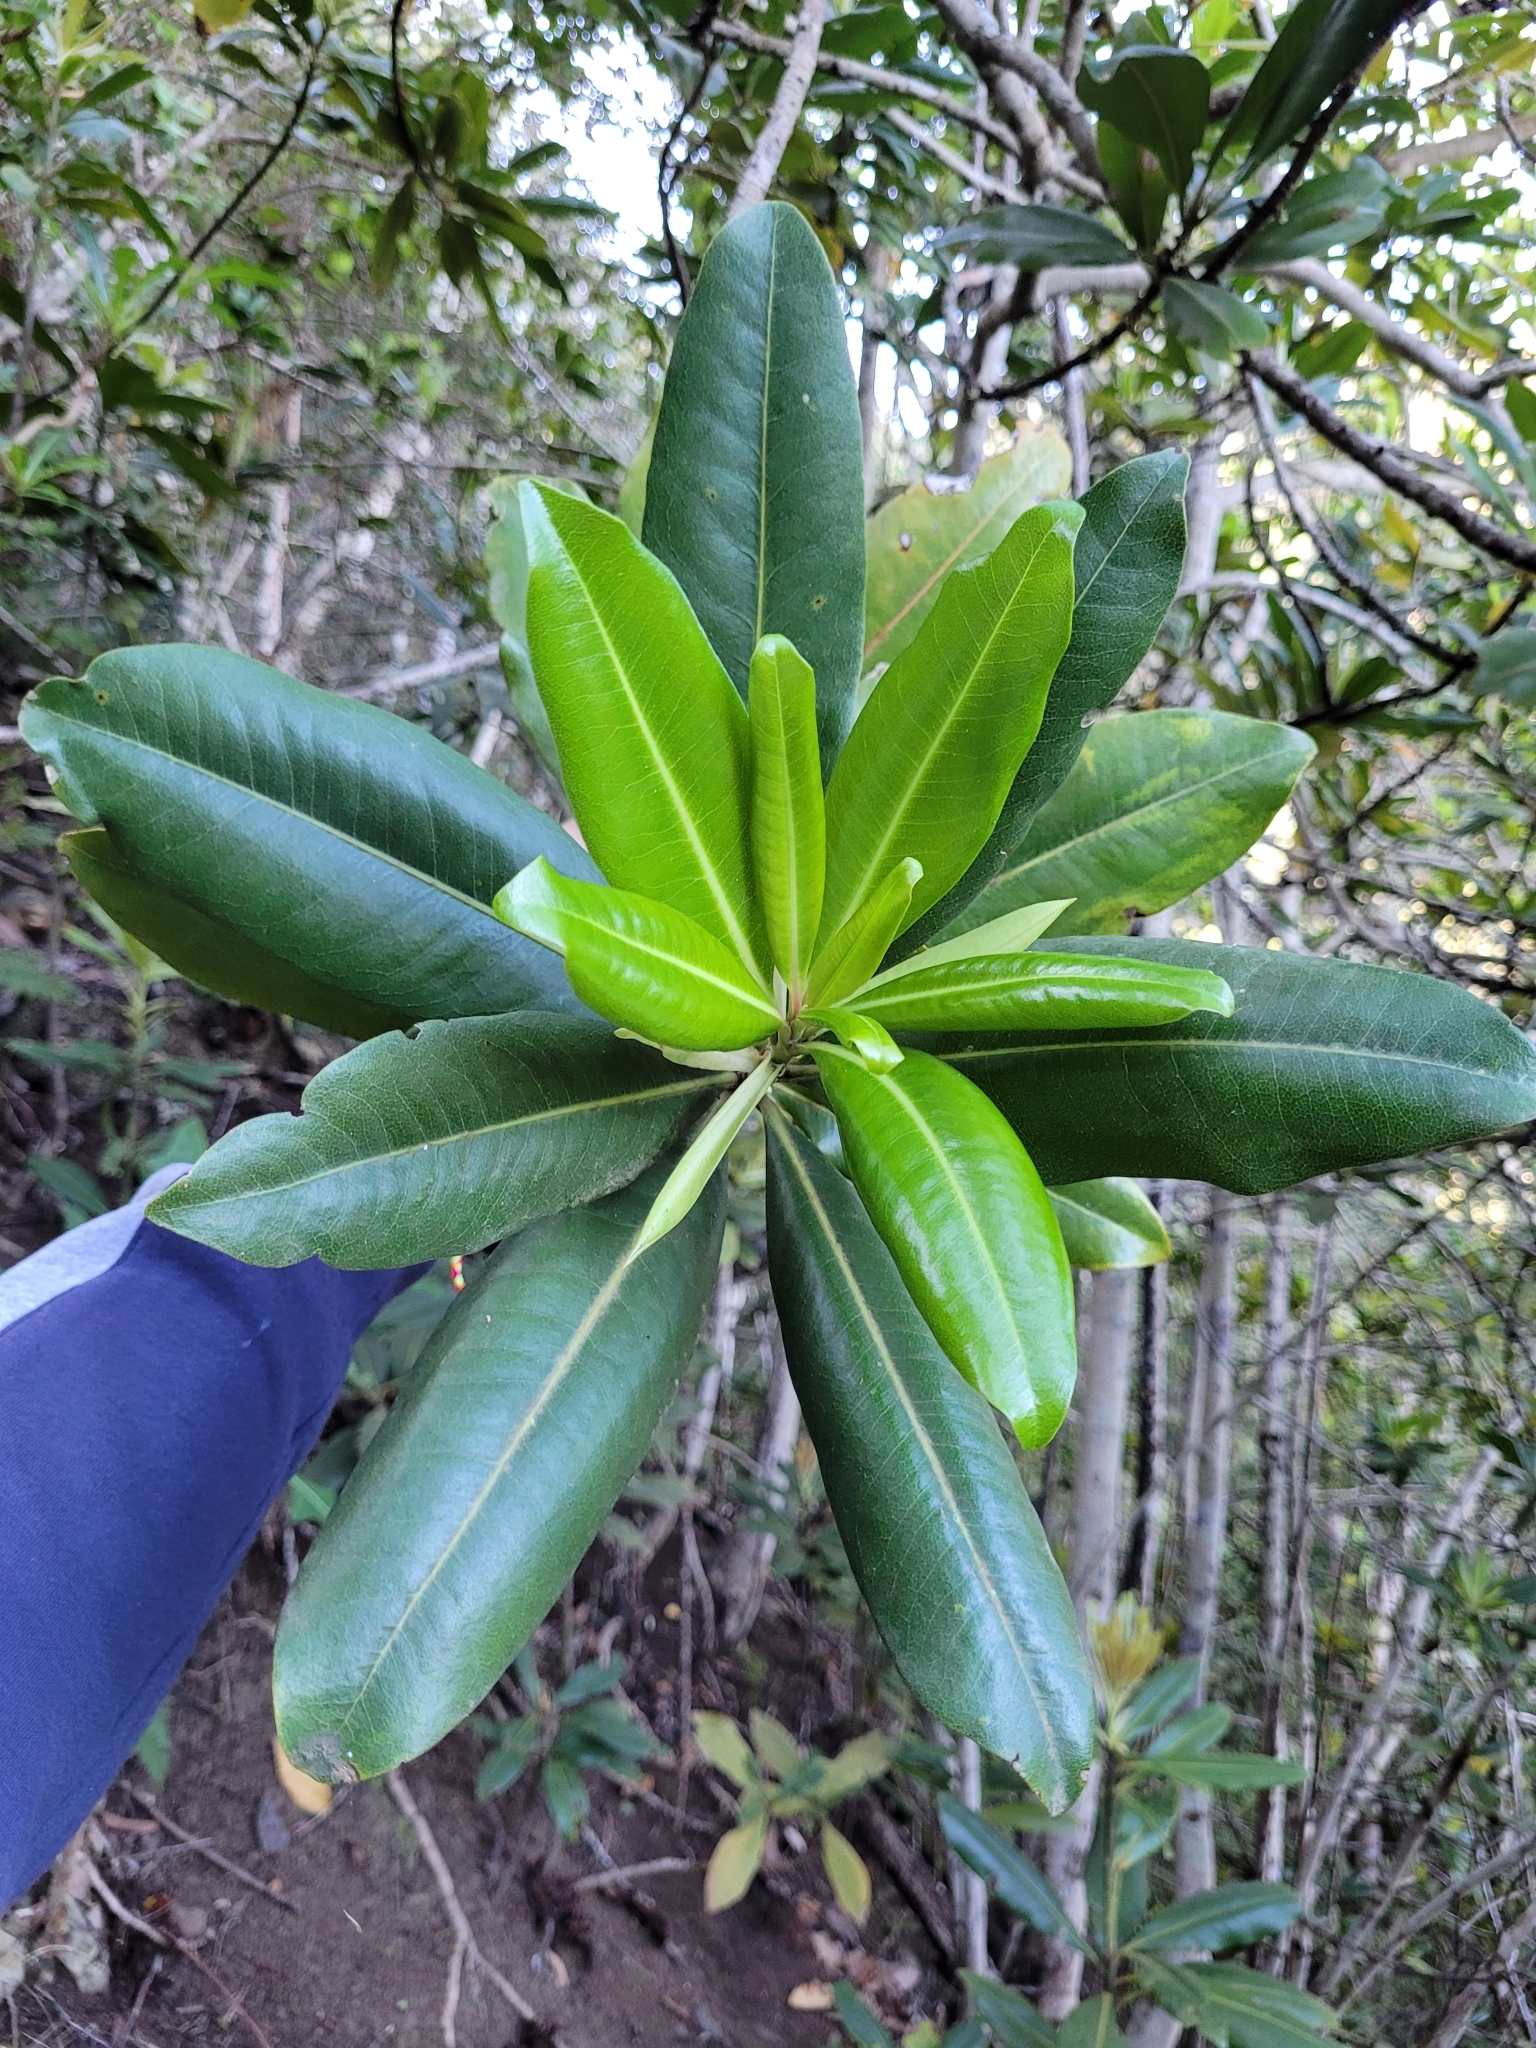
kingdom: Plantae
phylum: Tracheophyta
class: Magnoliopsida
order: Ericales
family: Primulaceae
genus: Pleiomeris
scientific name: Pleiomeris canariensis
